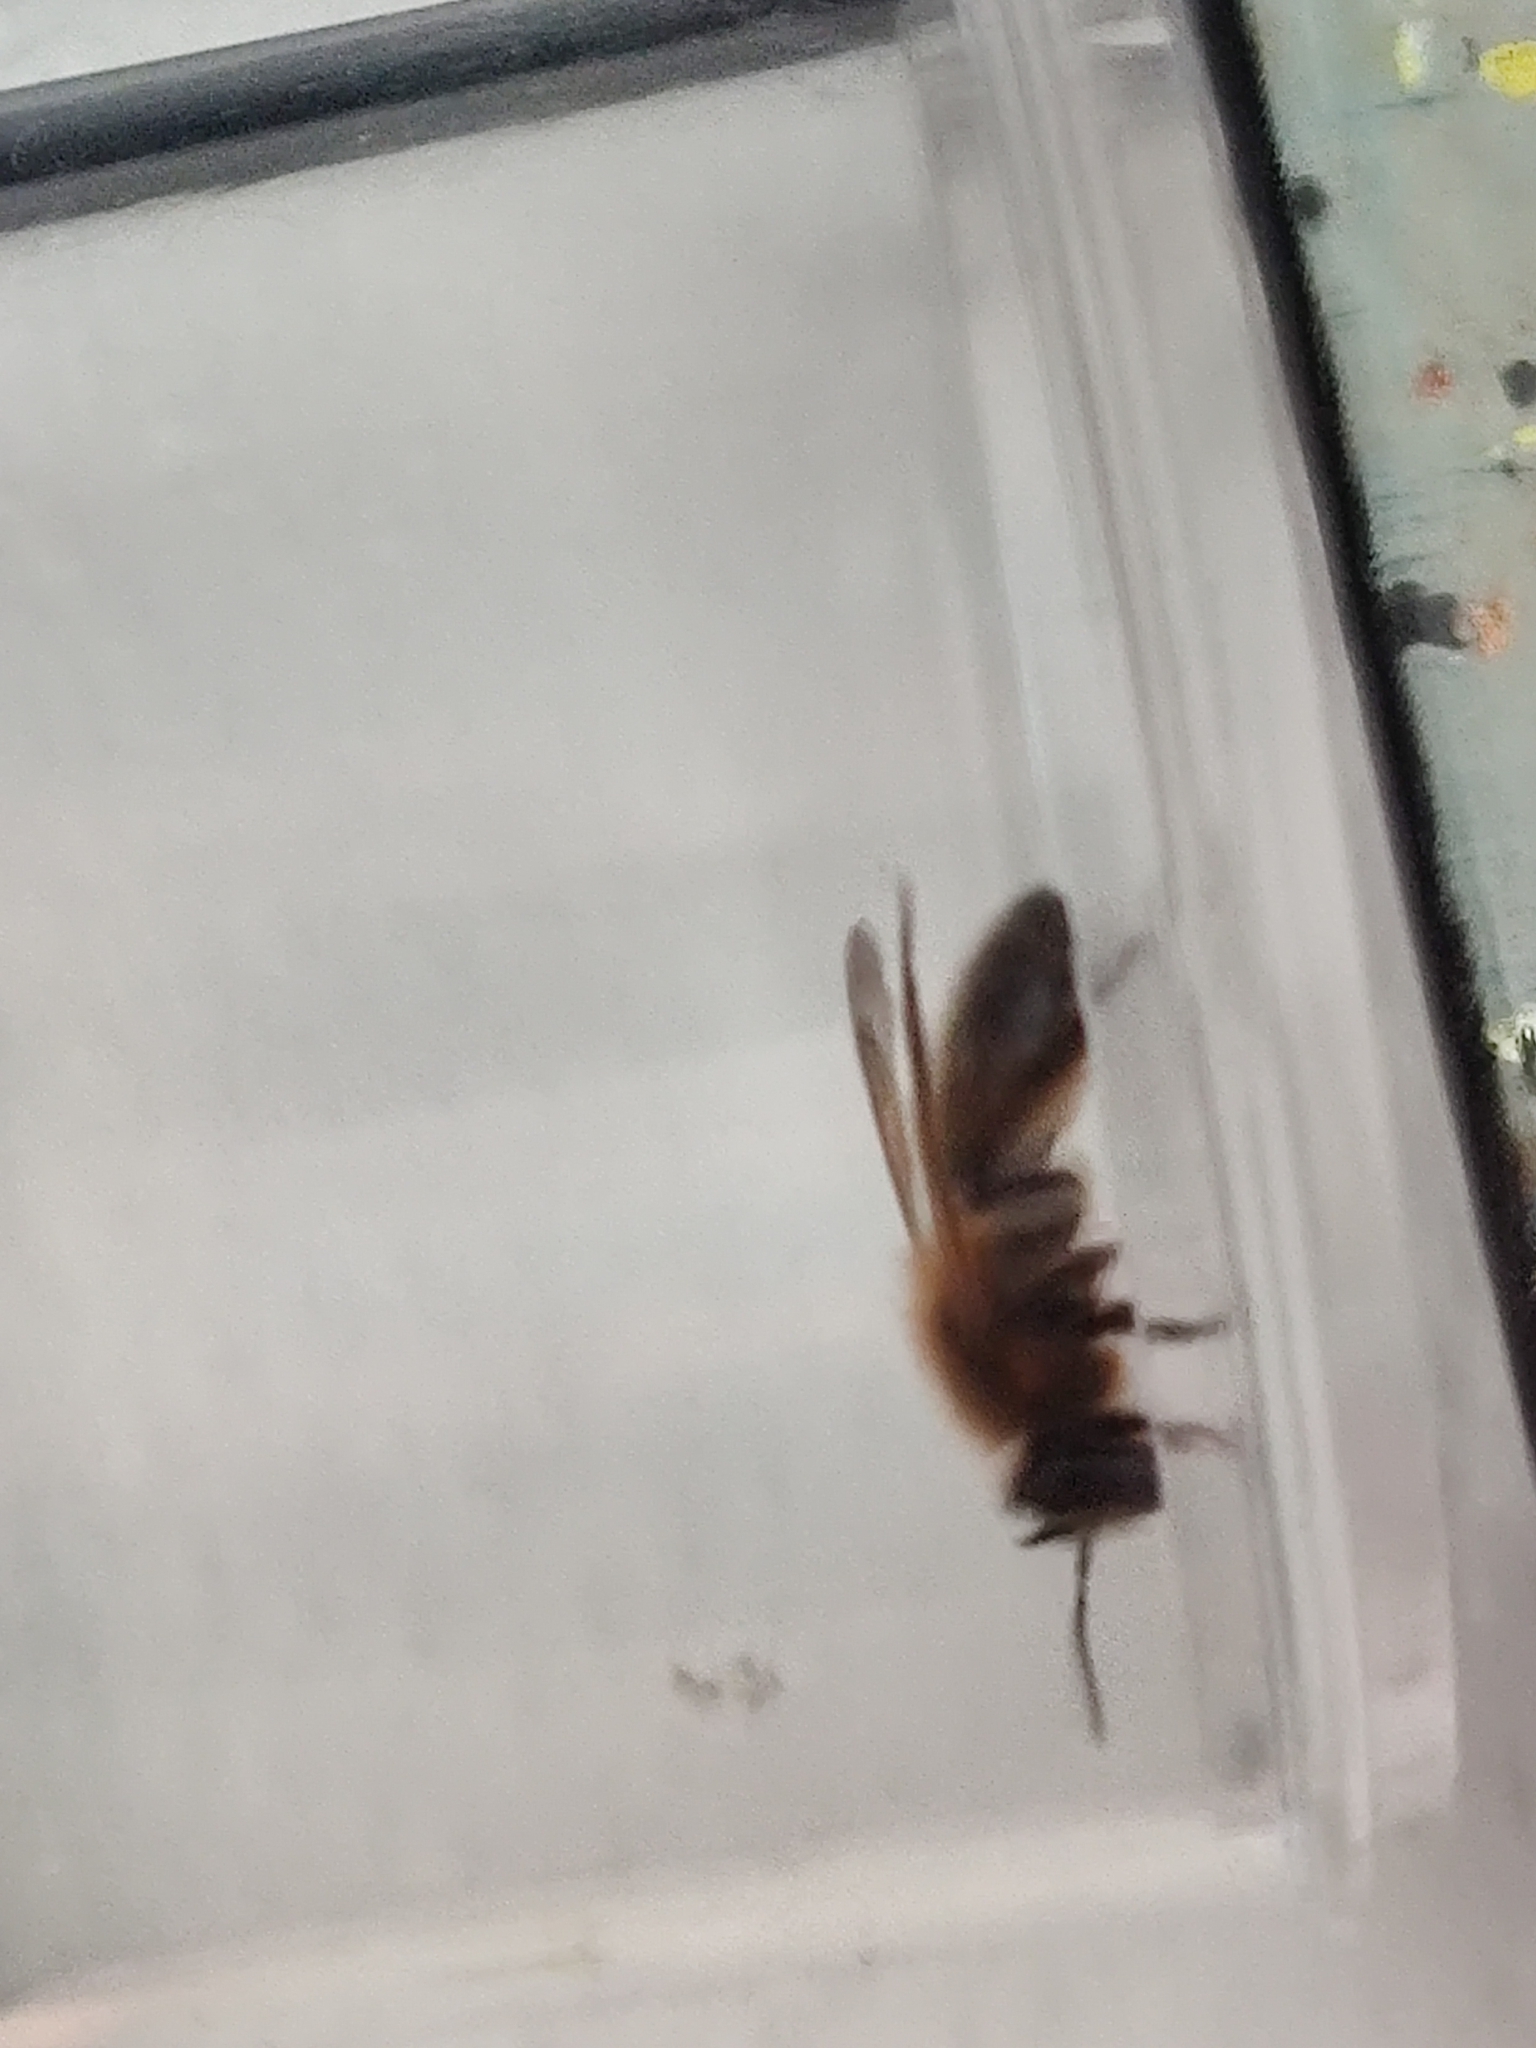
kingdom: Animalia
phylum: Arthropoda
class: Insecta
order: Hymenoptera
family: Andrenidae
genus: Andrena
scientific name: Andrena carantonica
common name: Chocolate mining bee
